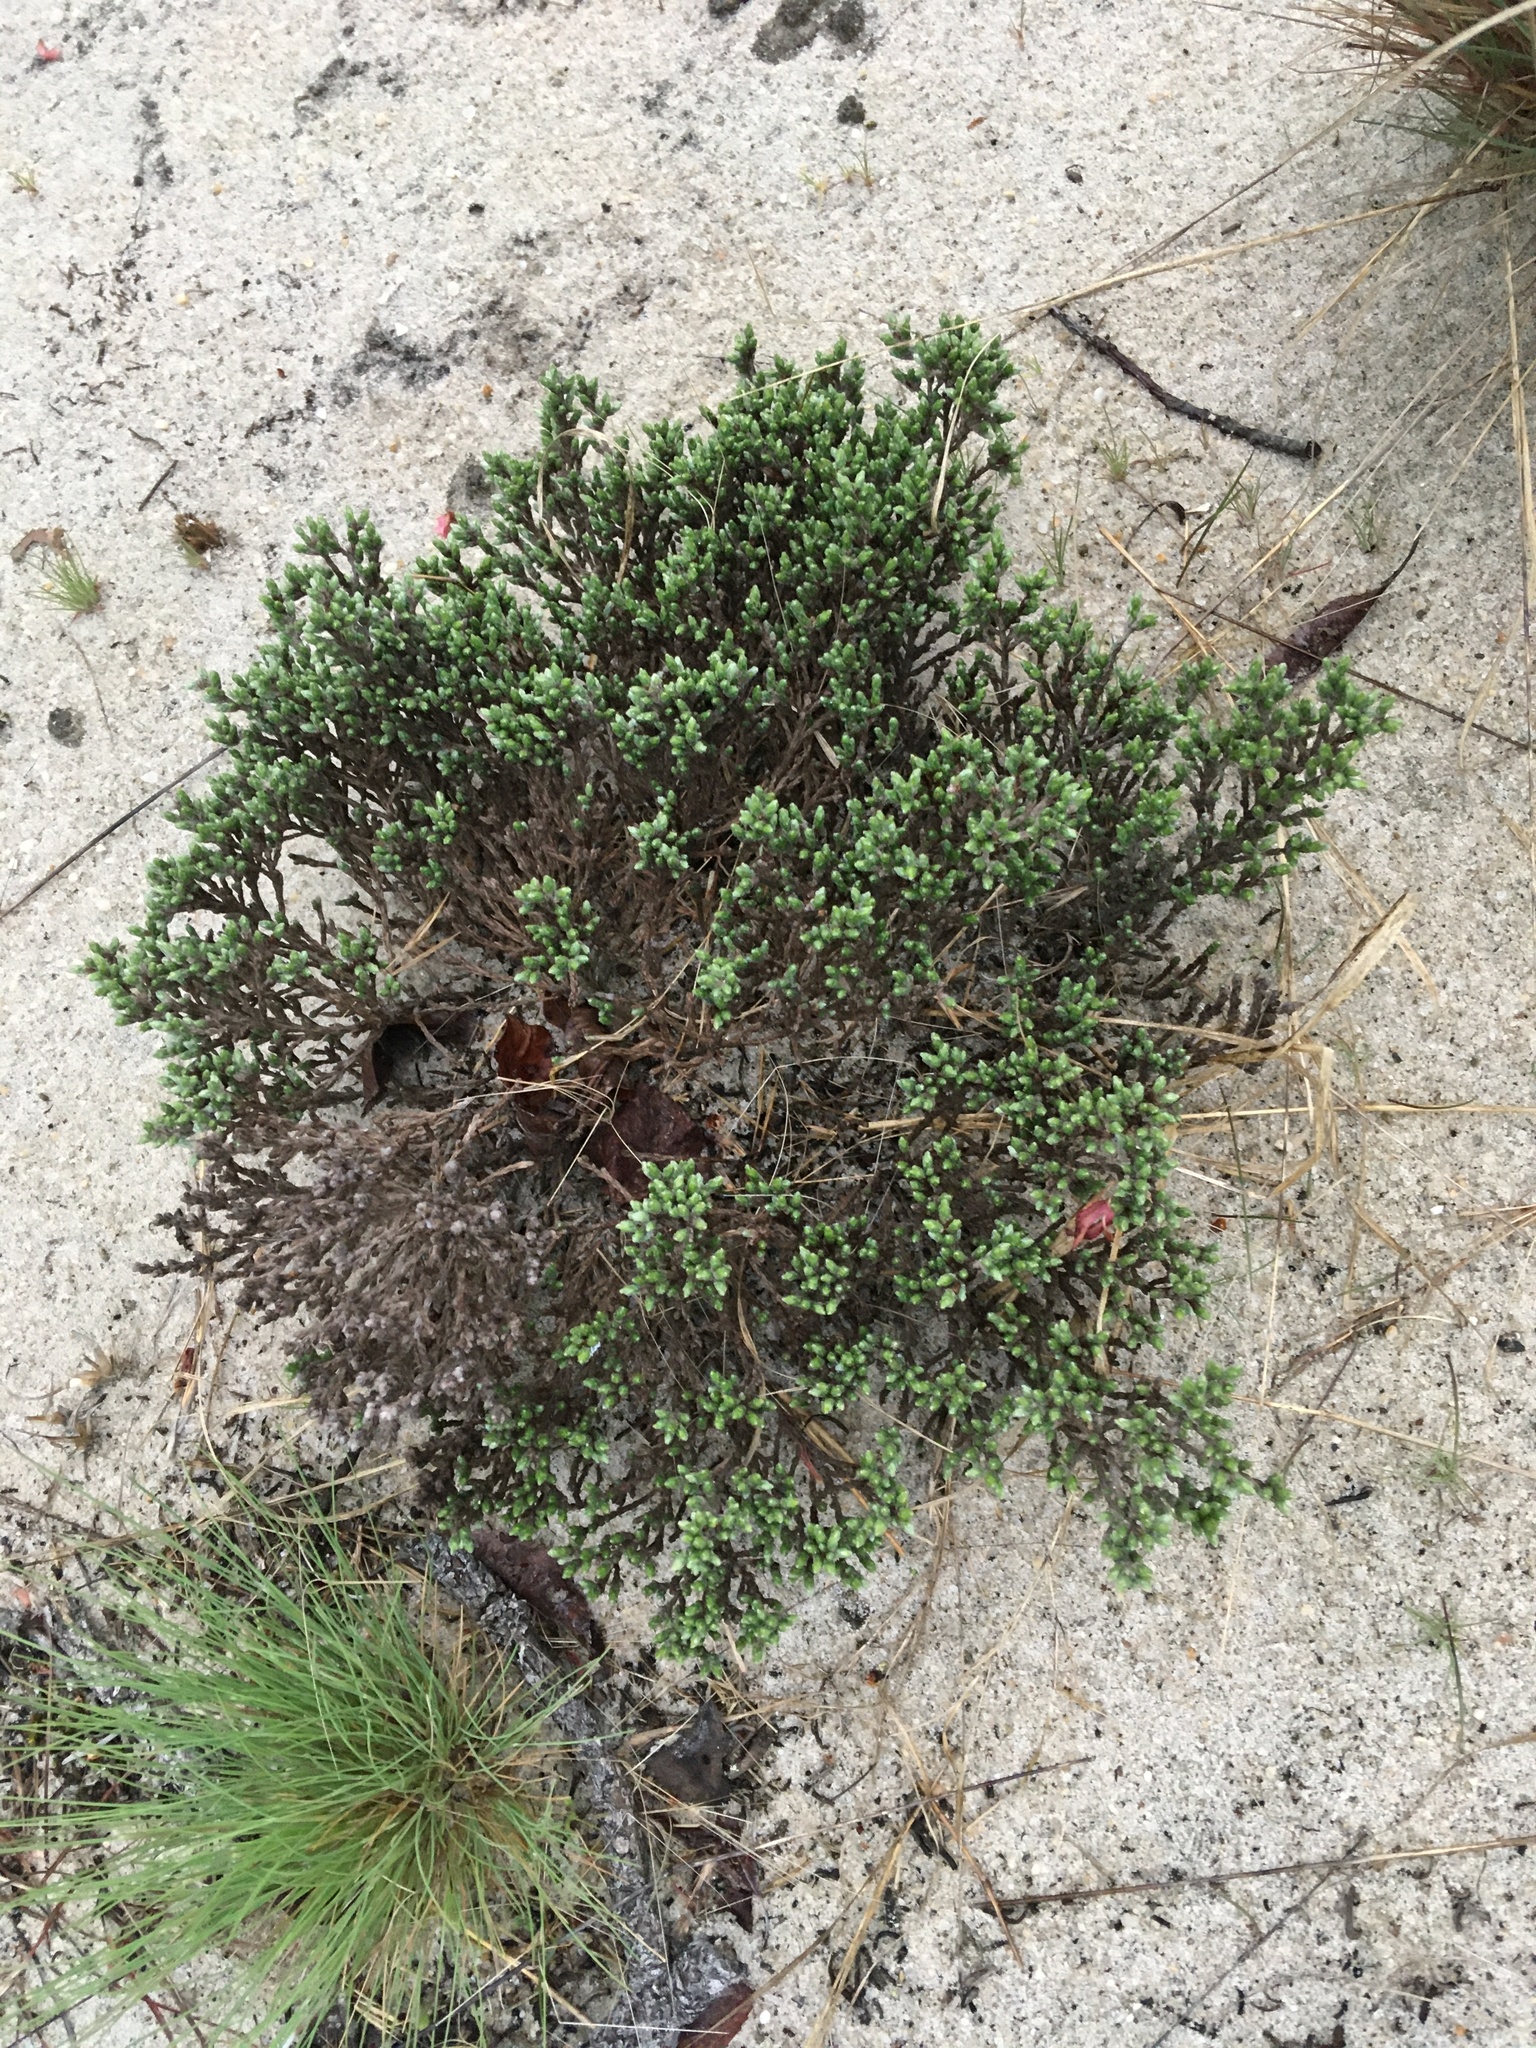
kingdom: Plantae
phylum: Tracheophyta
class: Magnoliopsida
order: Malvales
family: Cistaceae
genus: Hudsonia
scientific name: Hudsonia tomentosa
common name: Beach-heath
